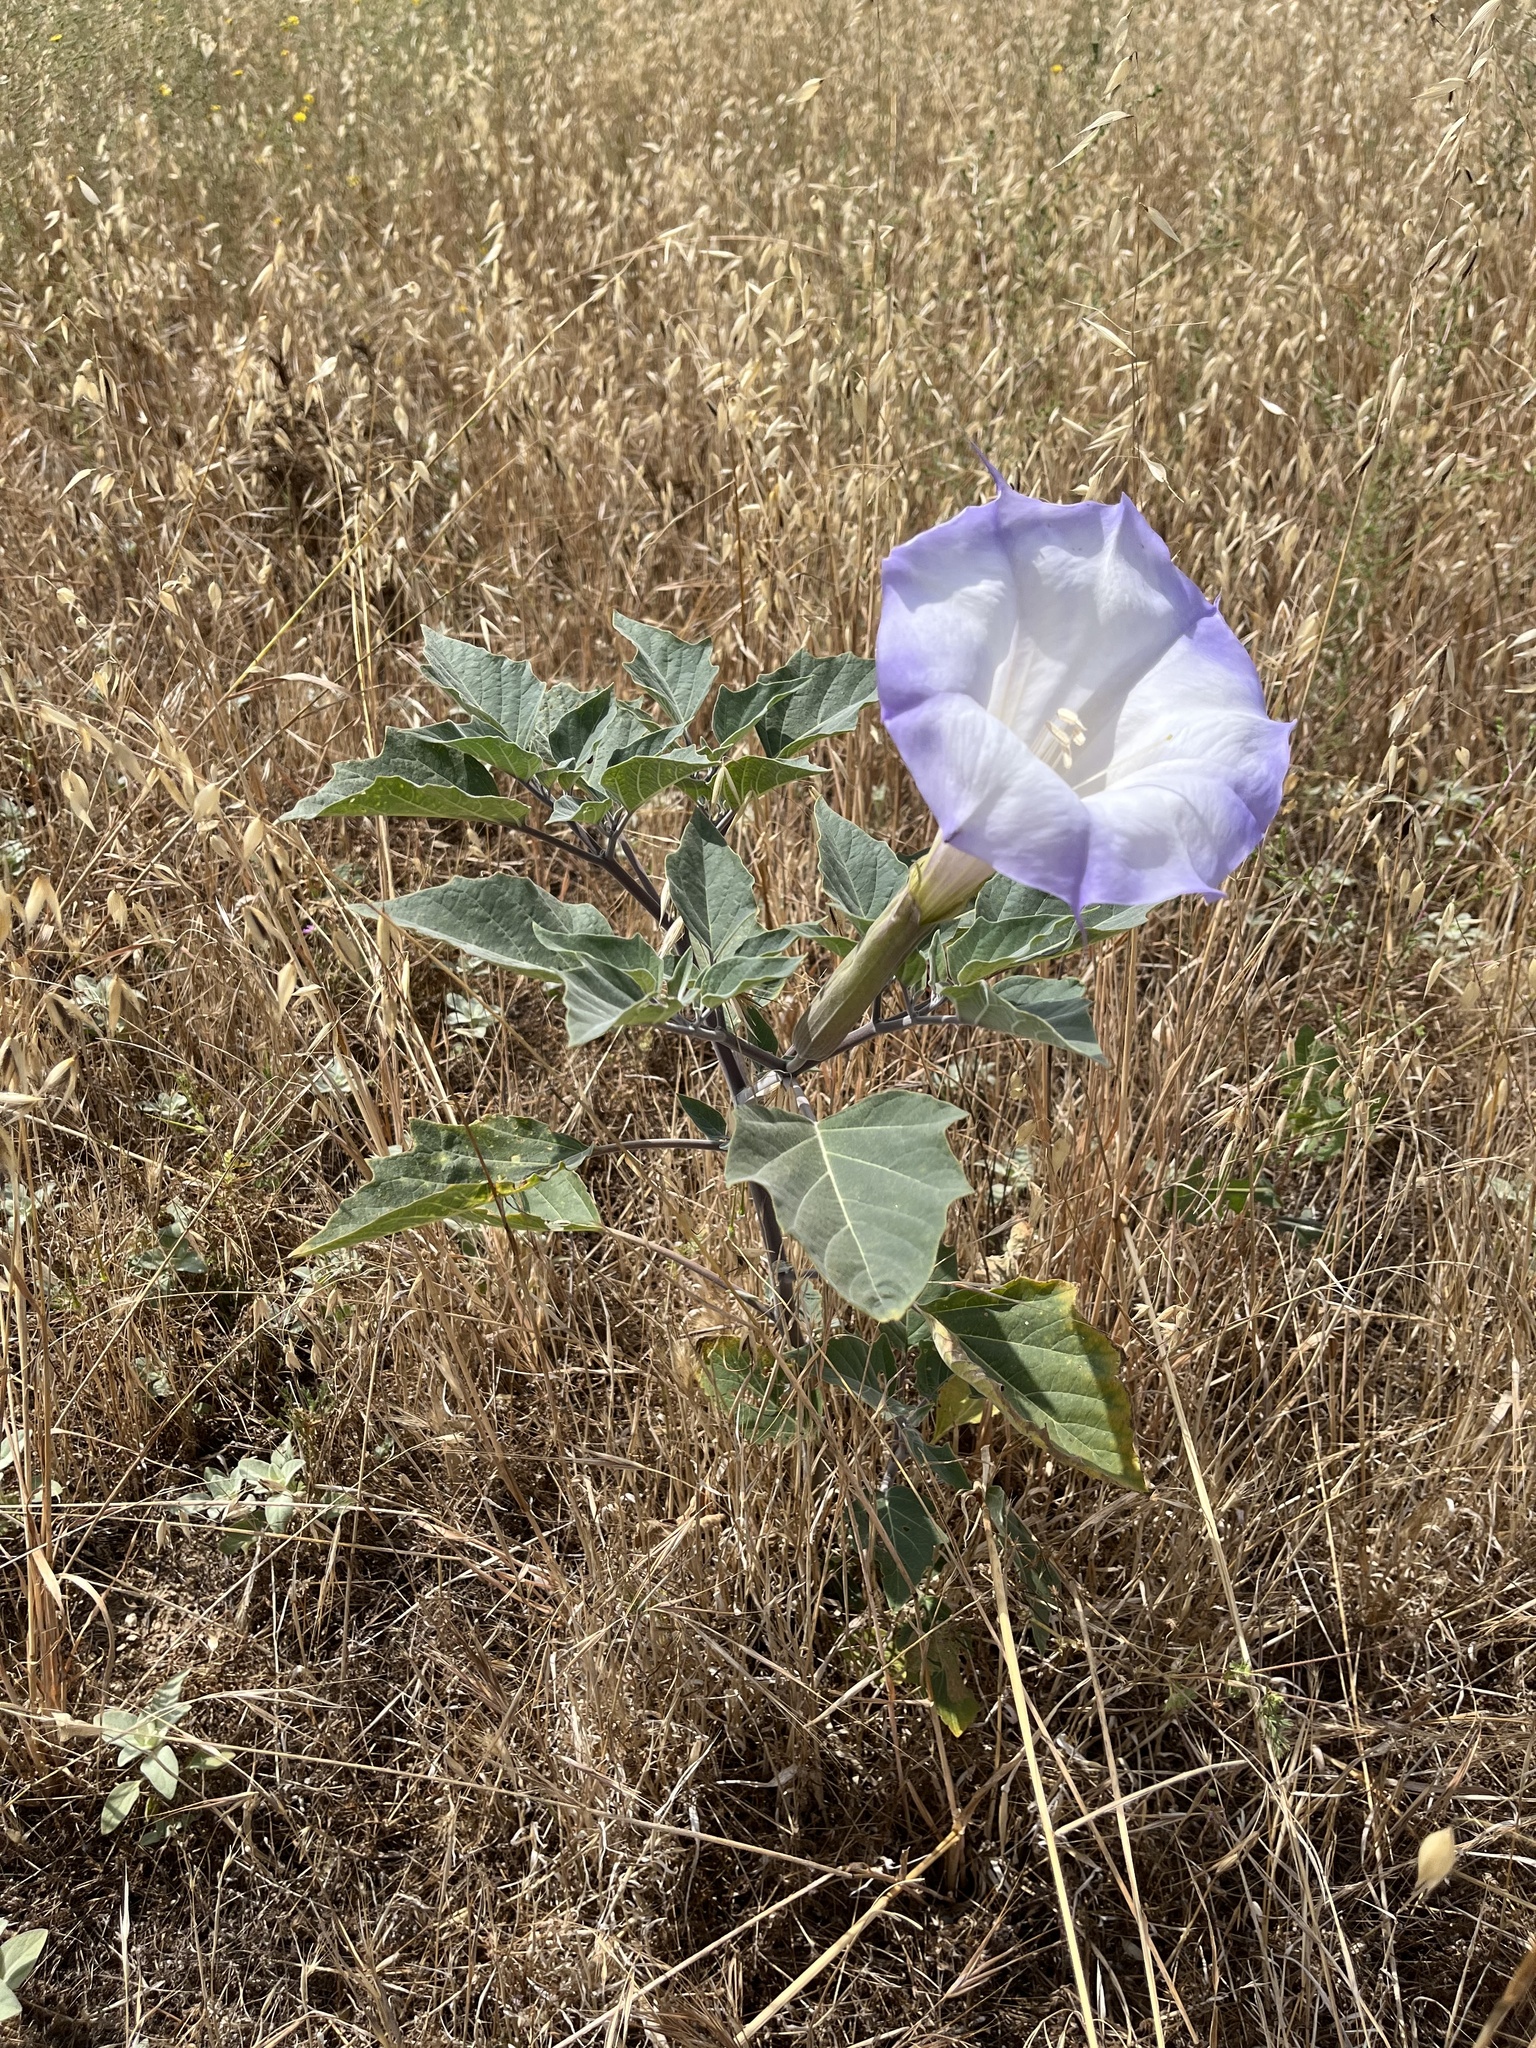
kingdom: Plantae
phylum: Tracheophyta
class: Magnoliopsida
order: Solanales
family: Solanaceae
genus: Datura
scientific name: Datura wrightii
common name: Sacred thorn-apple
